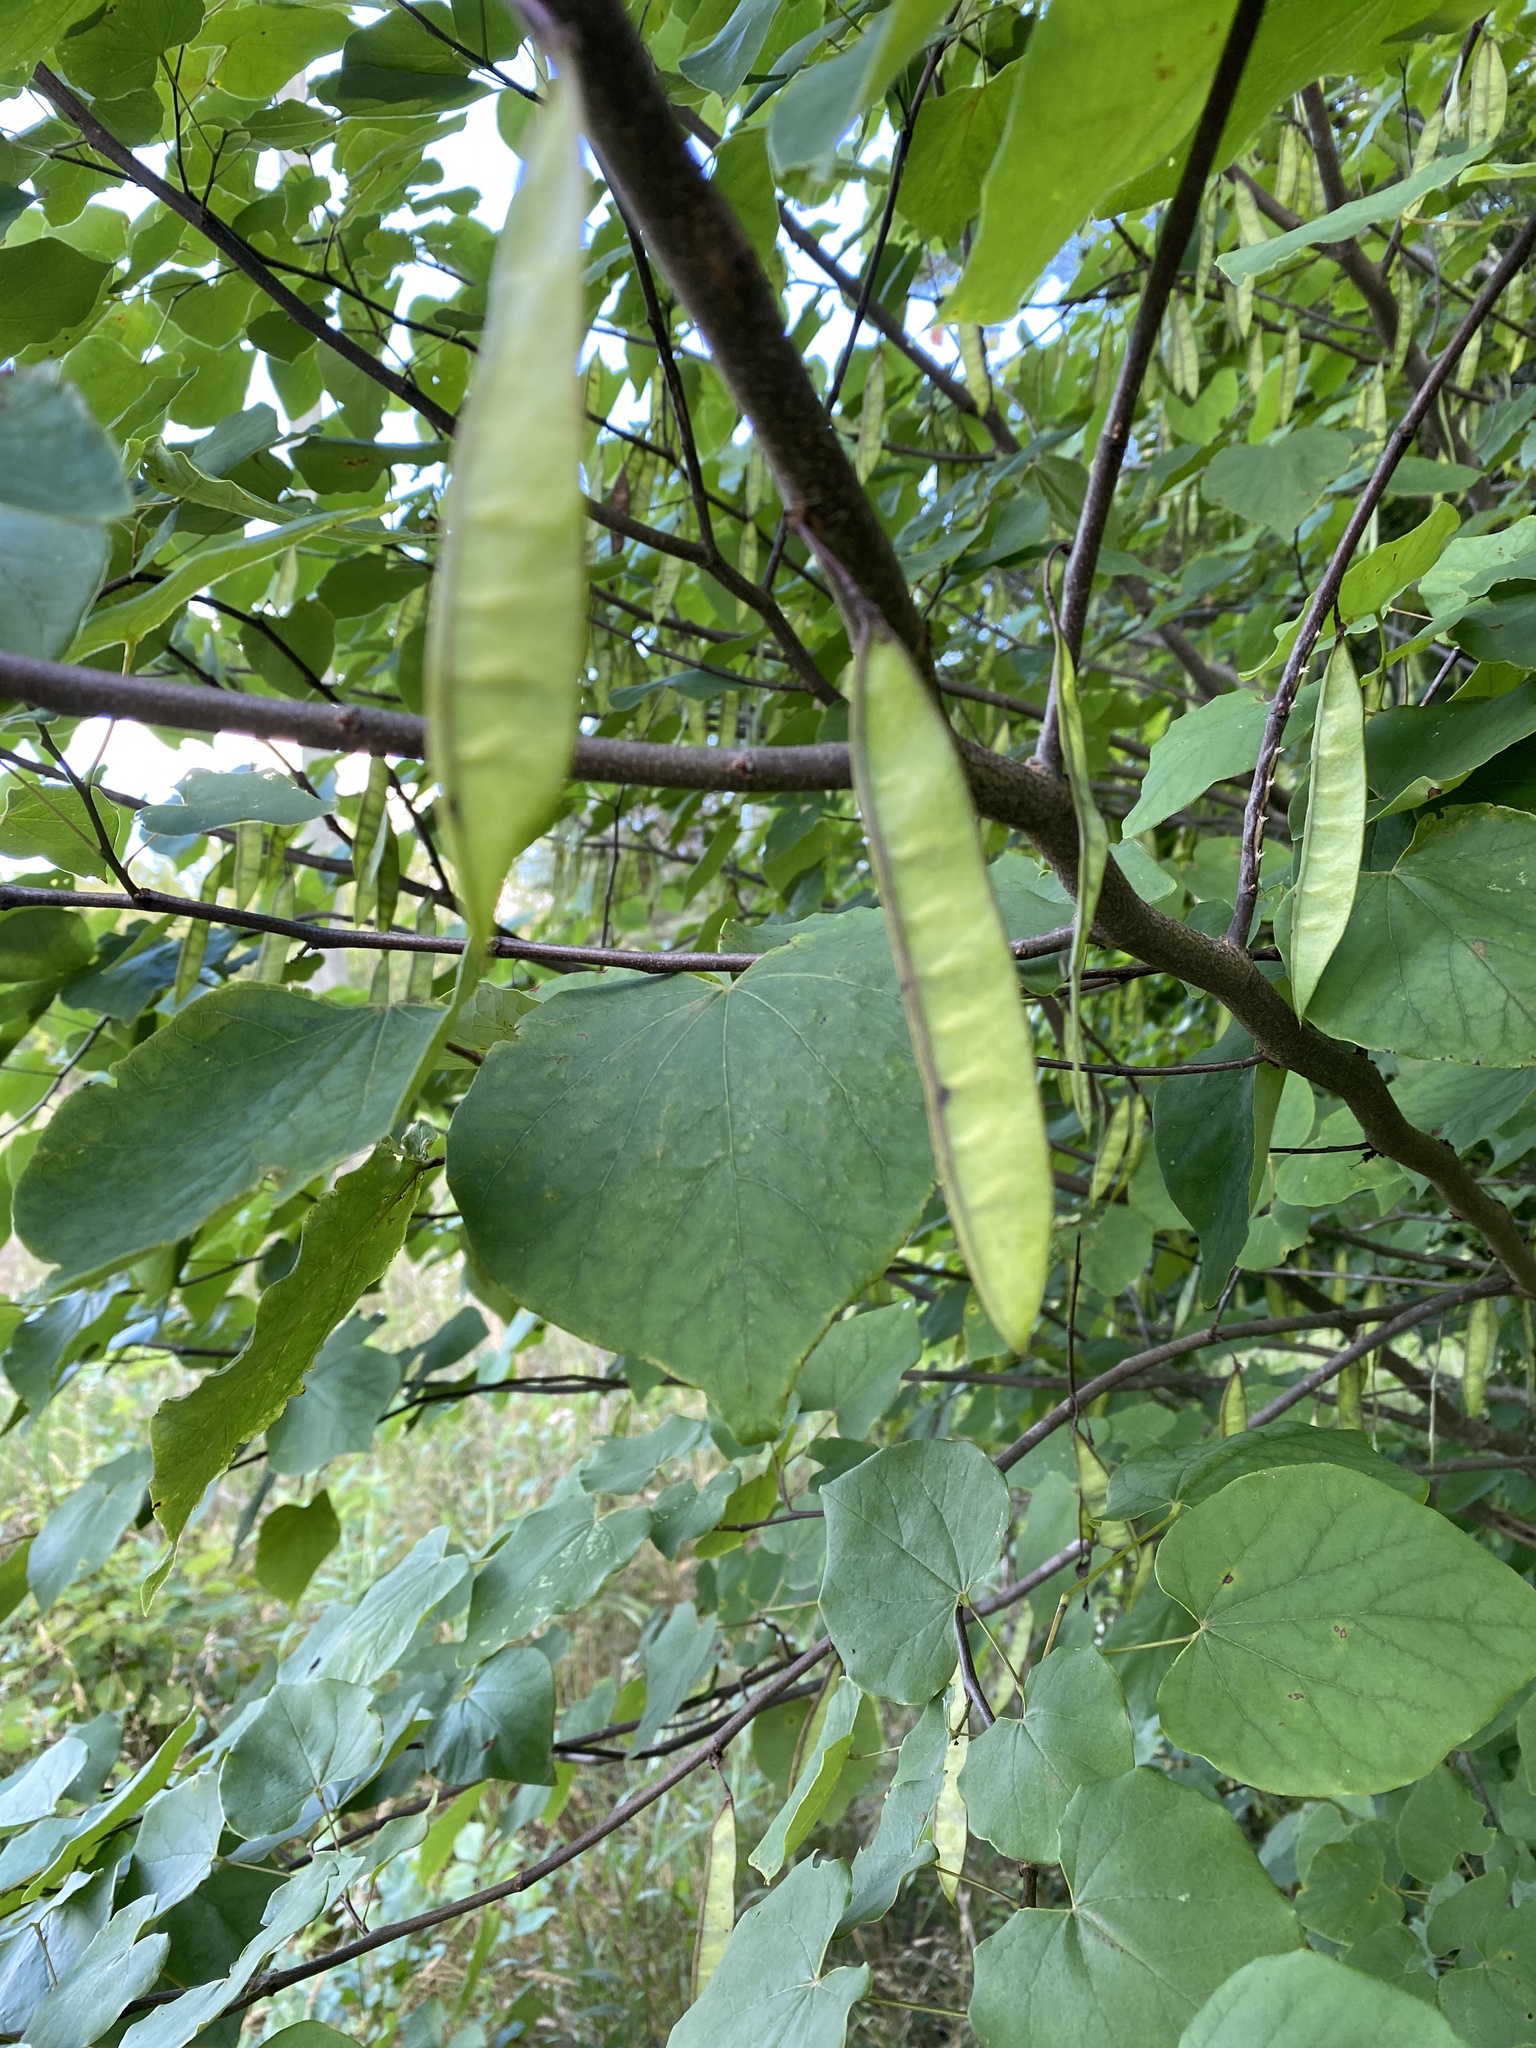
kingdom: Plantae
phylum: Tracheophyta
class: Magnoliopsida
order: Fabales
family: Fabaceae
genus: Cercis
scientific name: Cercis canadensis
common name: Eastern redbud
